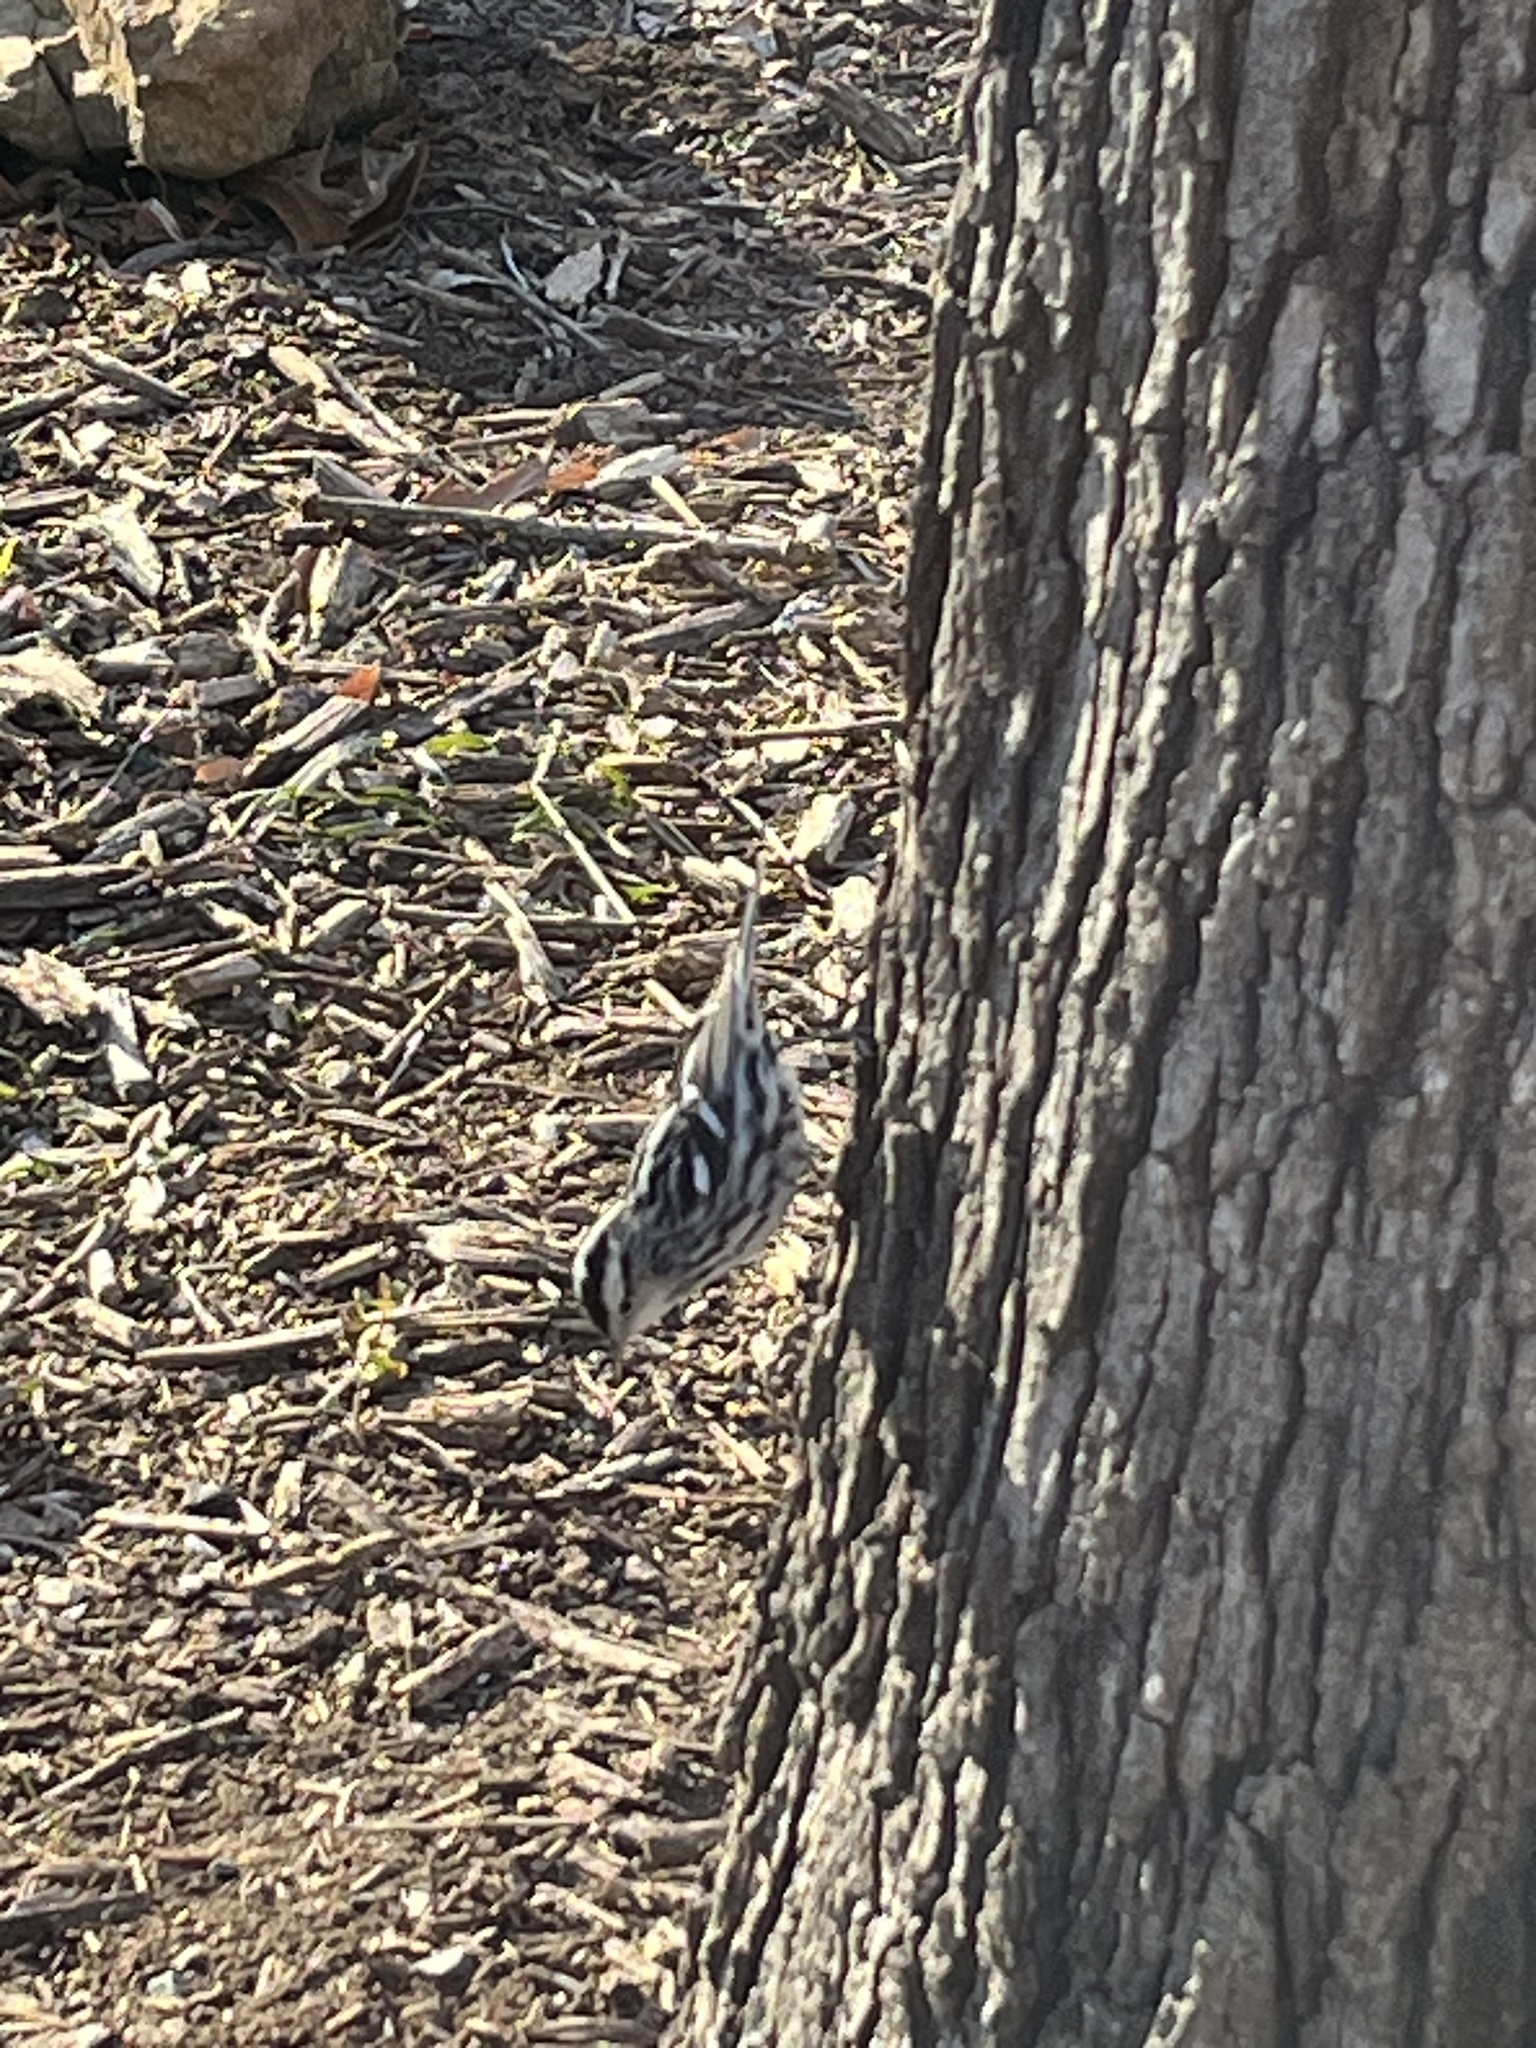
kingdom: Animalia
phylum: Chordata
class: Aves
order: Passeriformes
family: Parulidae
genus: Mniotilta
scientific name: Mniotilta varia
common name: Black-and-white warbler
